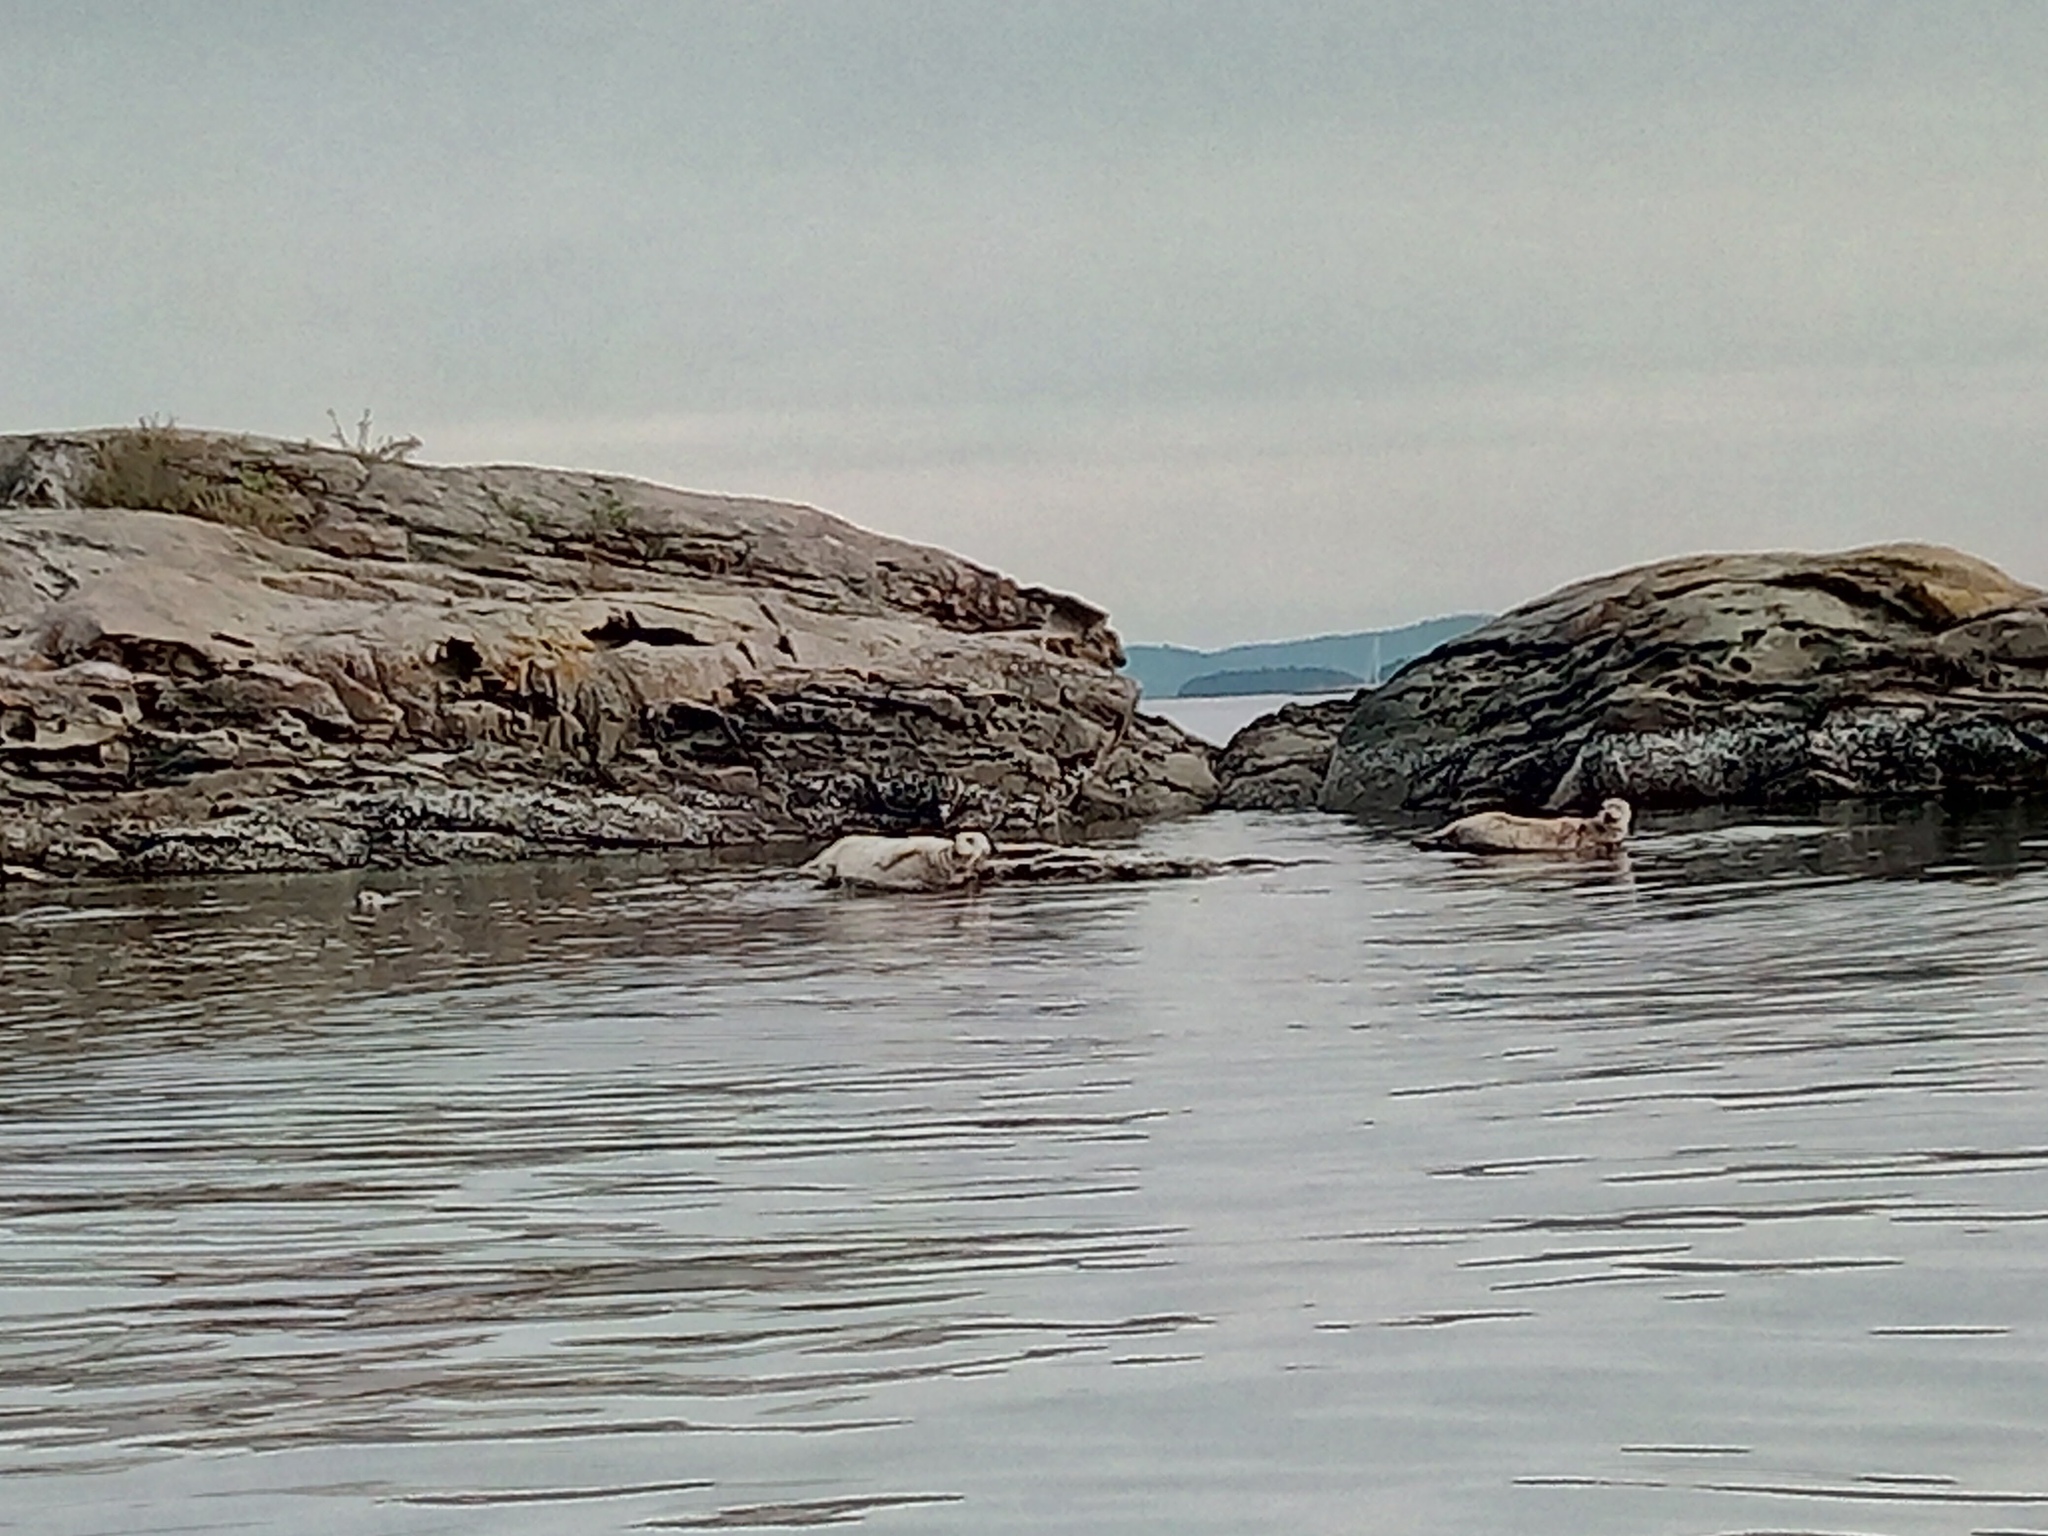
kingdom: Animalia
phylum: Chordata
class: Mammalia
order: Carnivora
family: Phocidae
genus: Phoca
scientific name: Phoca vitulina
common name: Harbor seal
